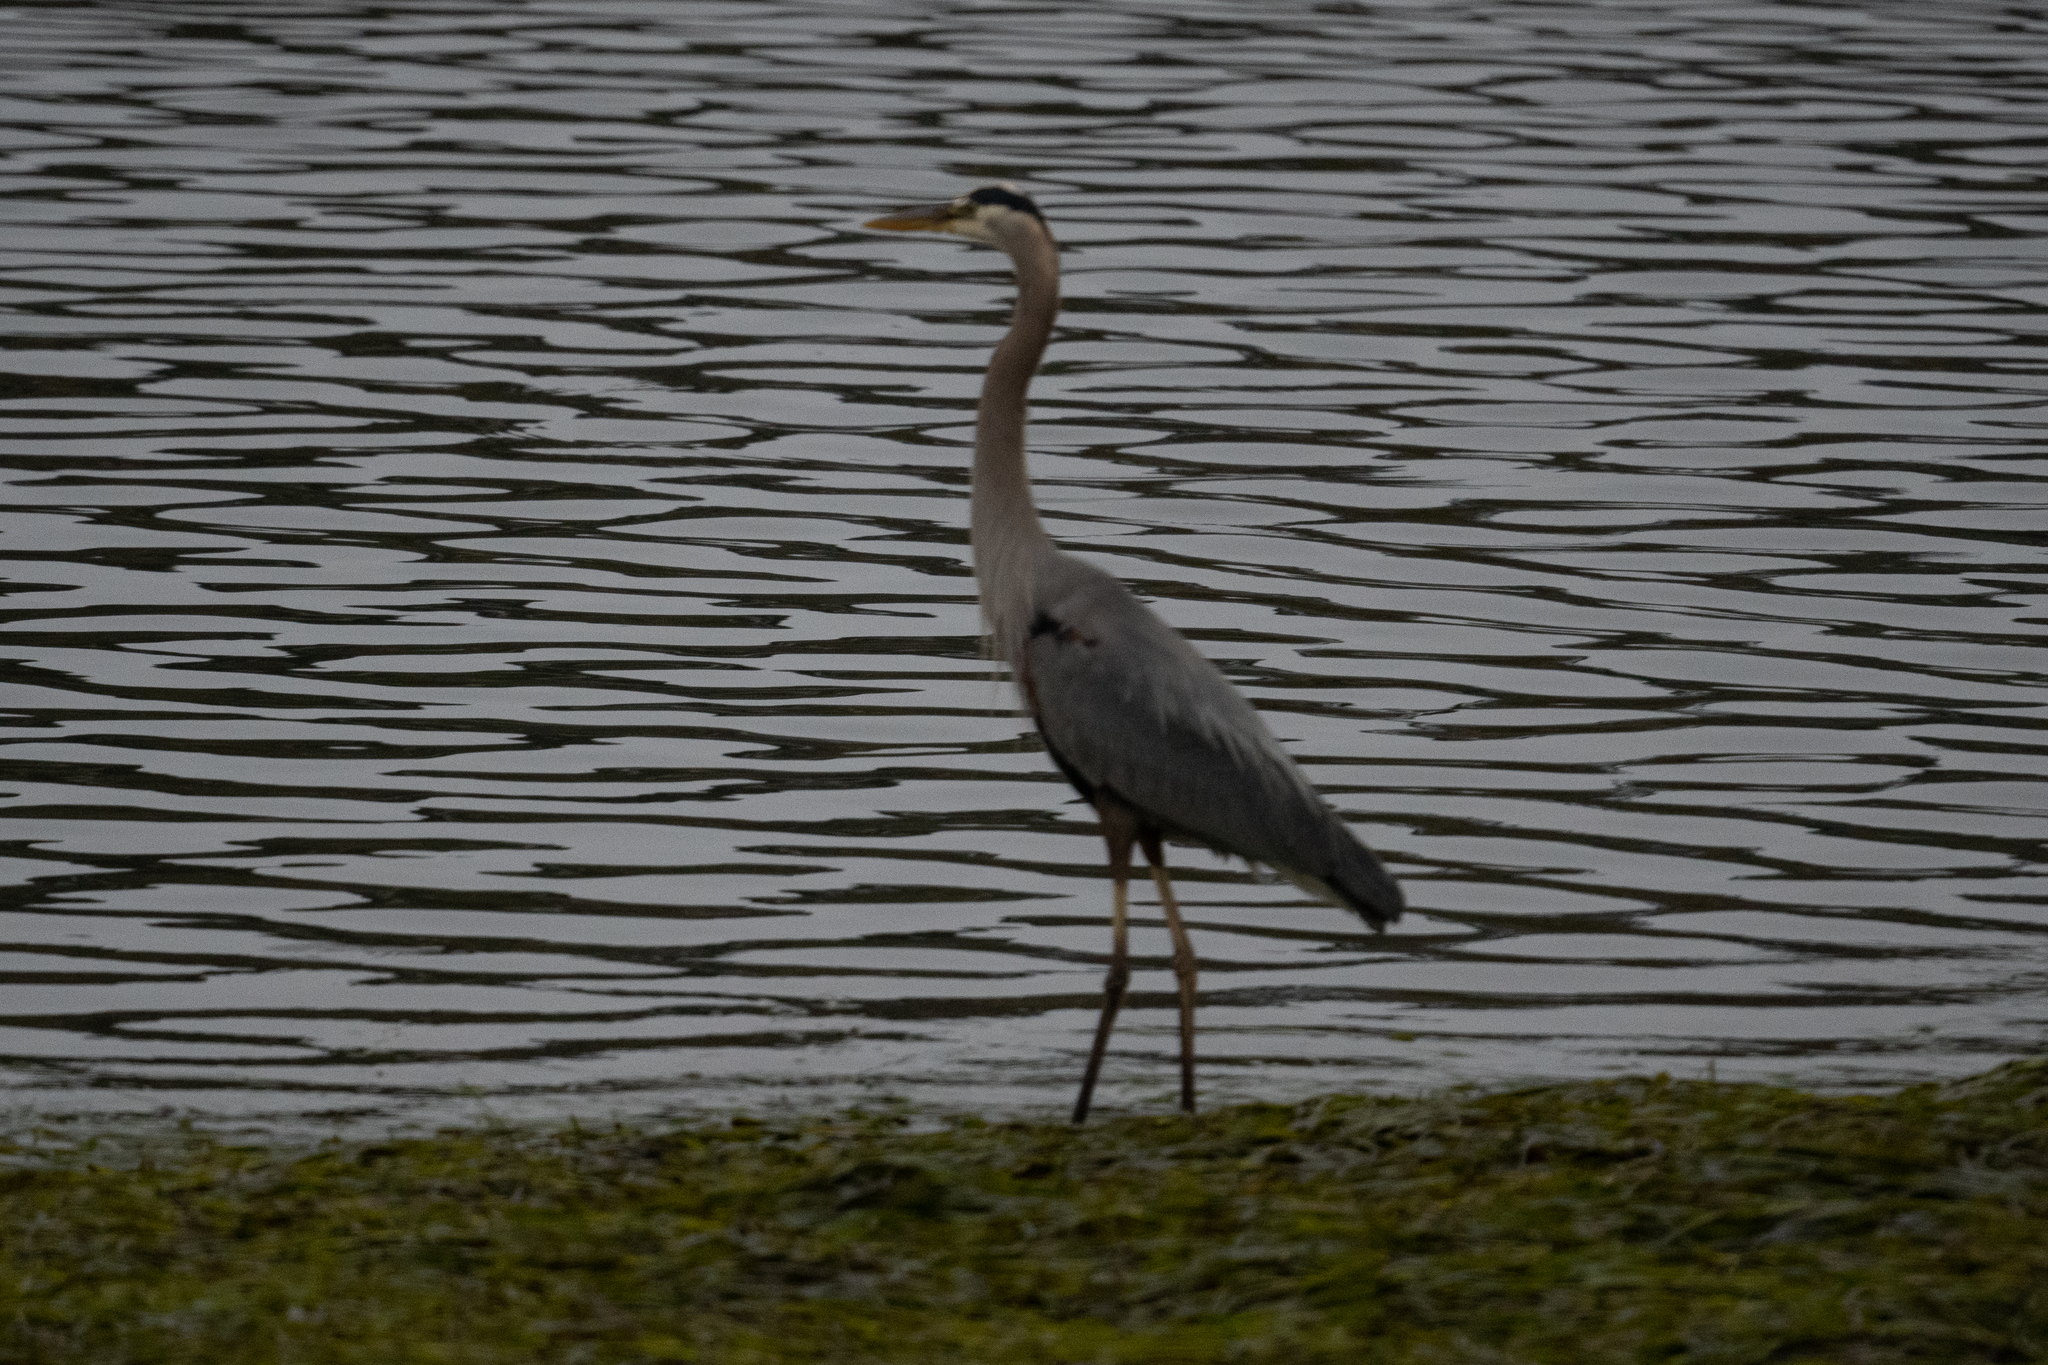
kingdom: Animalia
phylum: Chordata
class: Aves
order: Pelecaniformes
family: Ardeidae
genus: Ardea
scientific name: Ardea herodias
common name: Great blue heron
